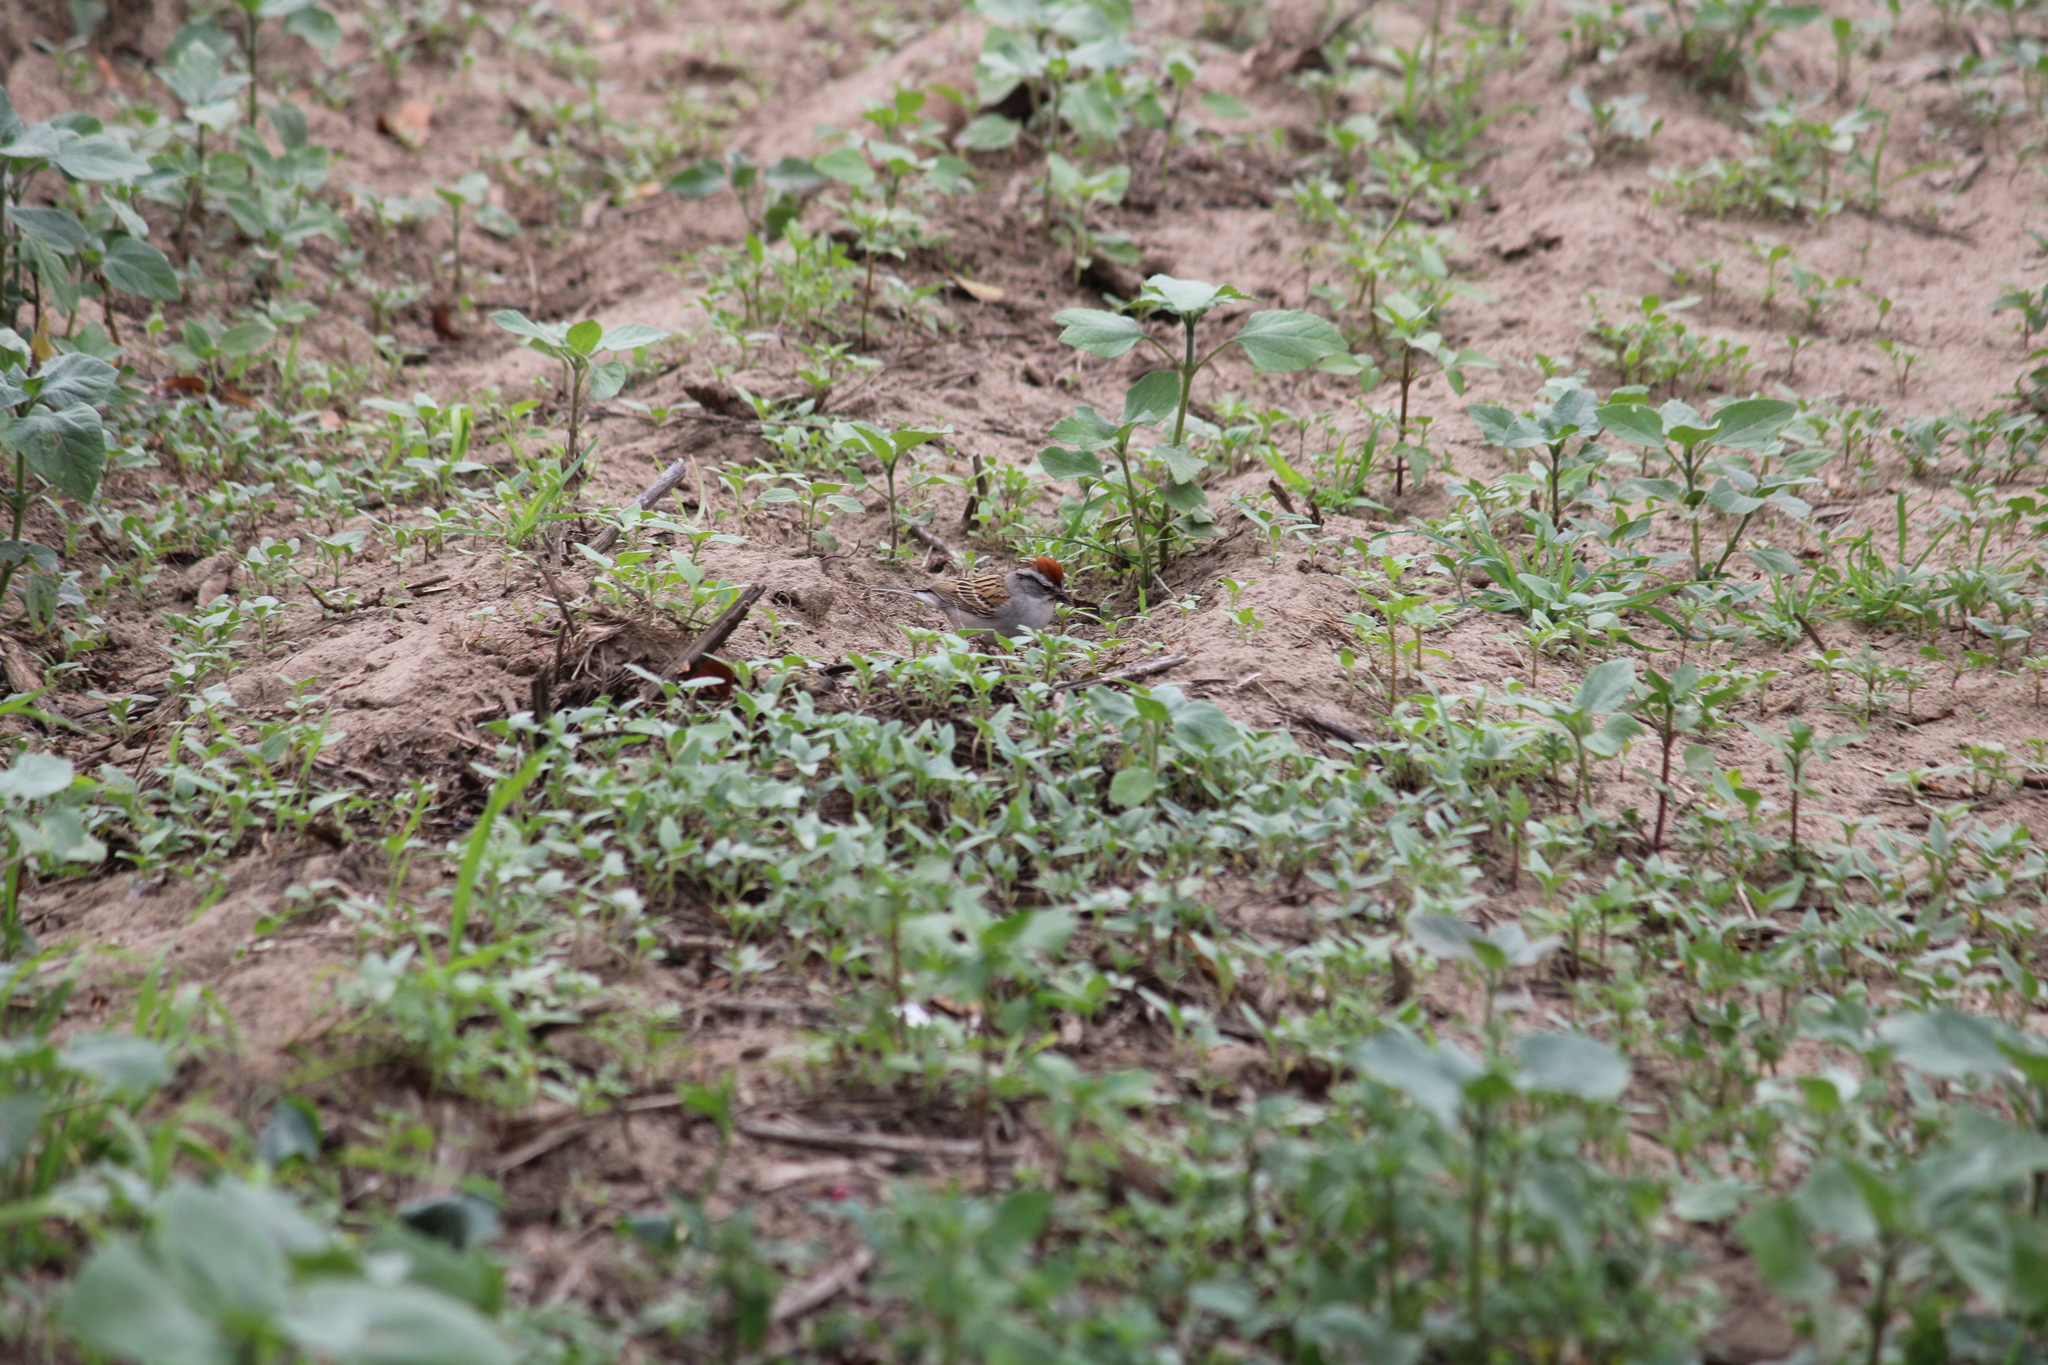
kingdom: Animalia
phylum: Chordata
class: Aves
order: Passeriformes
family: Passerellidae
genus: Spizella
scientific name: Spizella passerina
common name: Chipping sparrow
